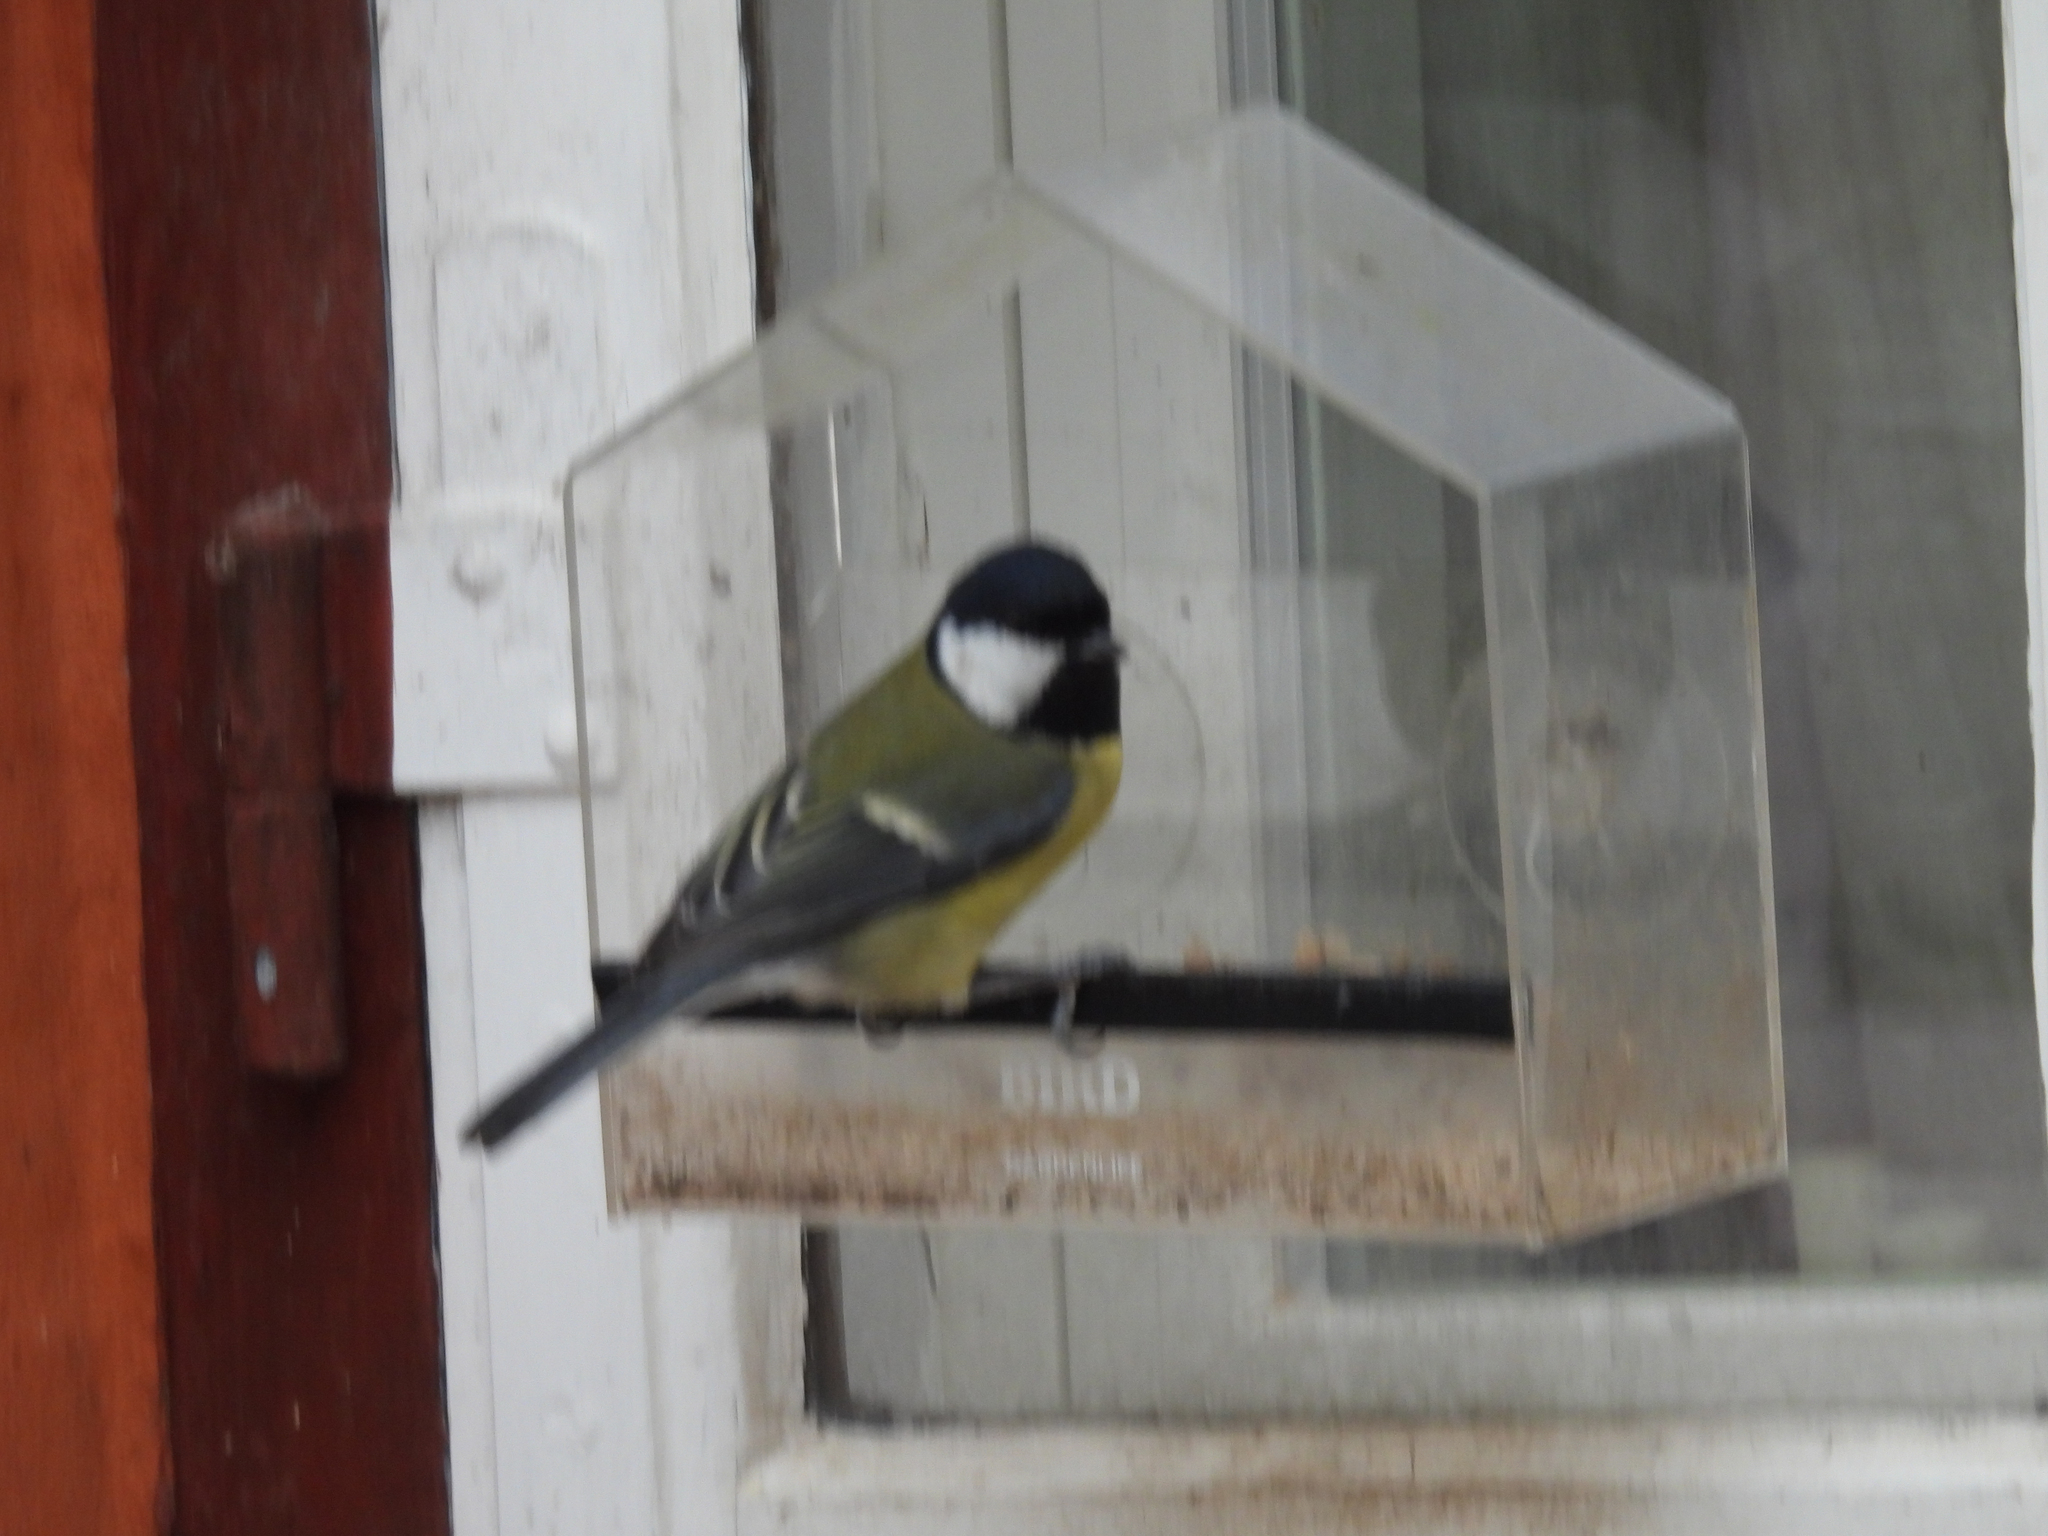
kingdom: Animalia
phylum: Chordata
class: Aves
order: Passeriformes
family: Paridae
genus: Parus
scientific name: Parus major
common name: Great tit
